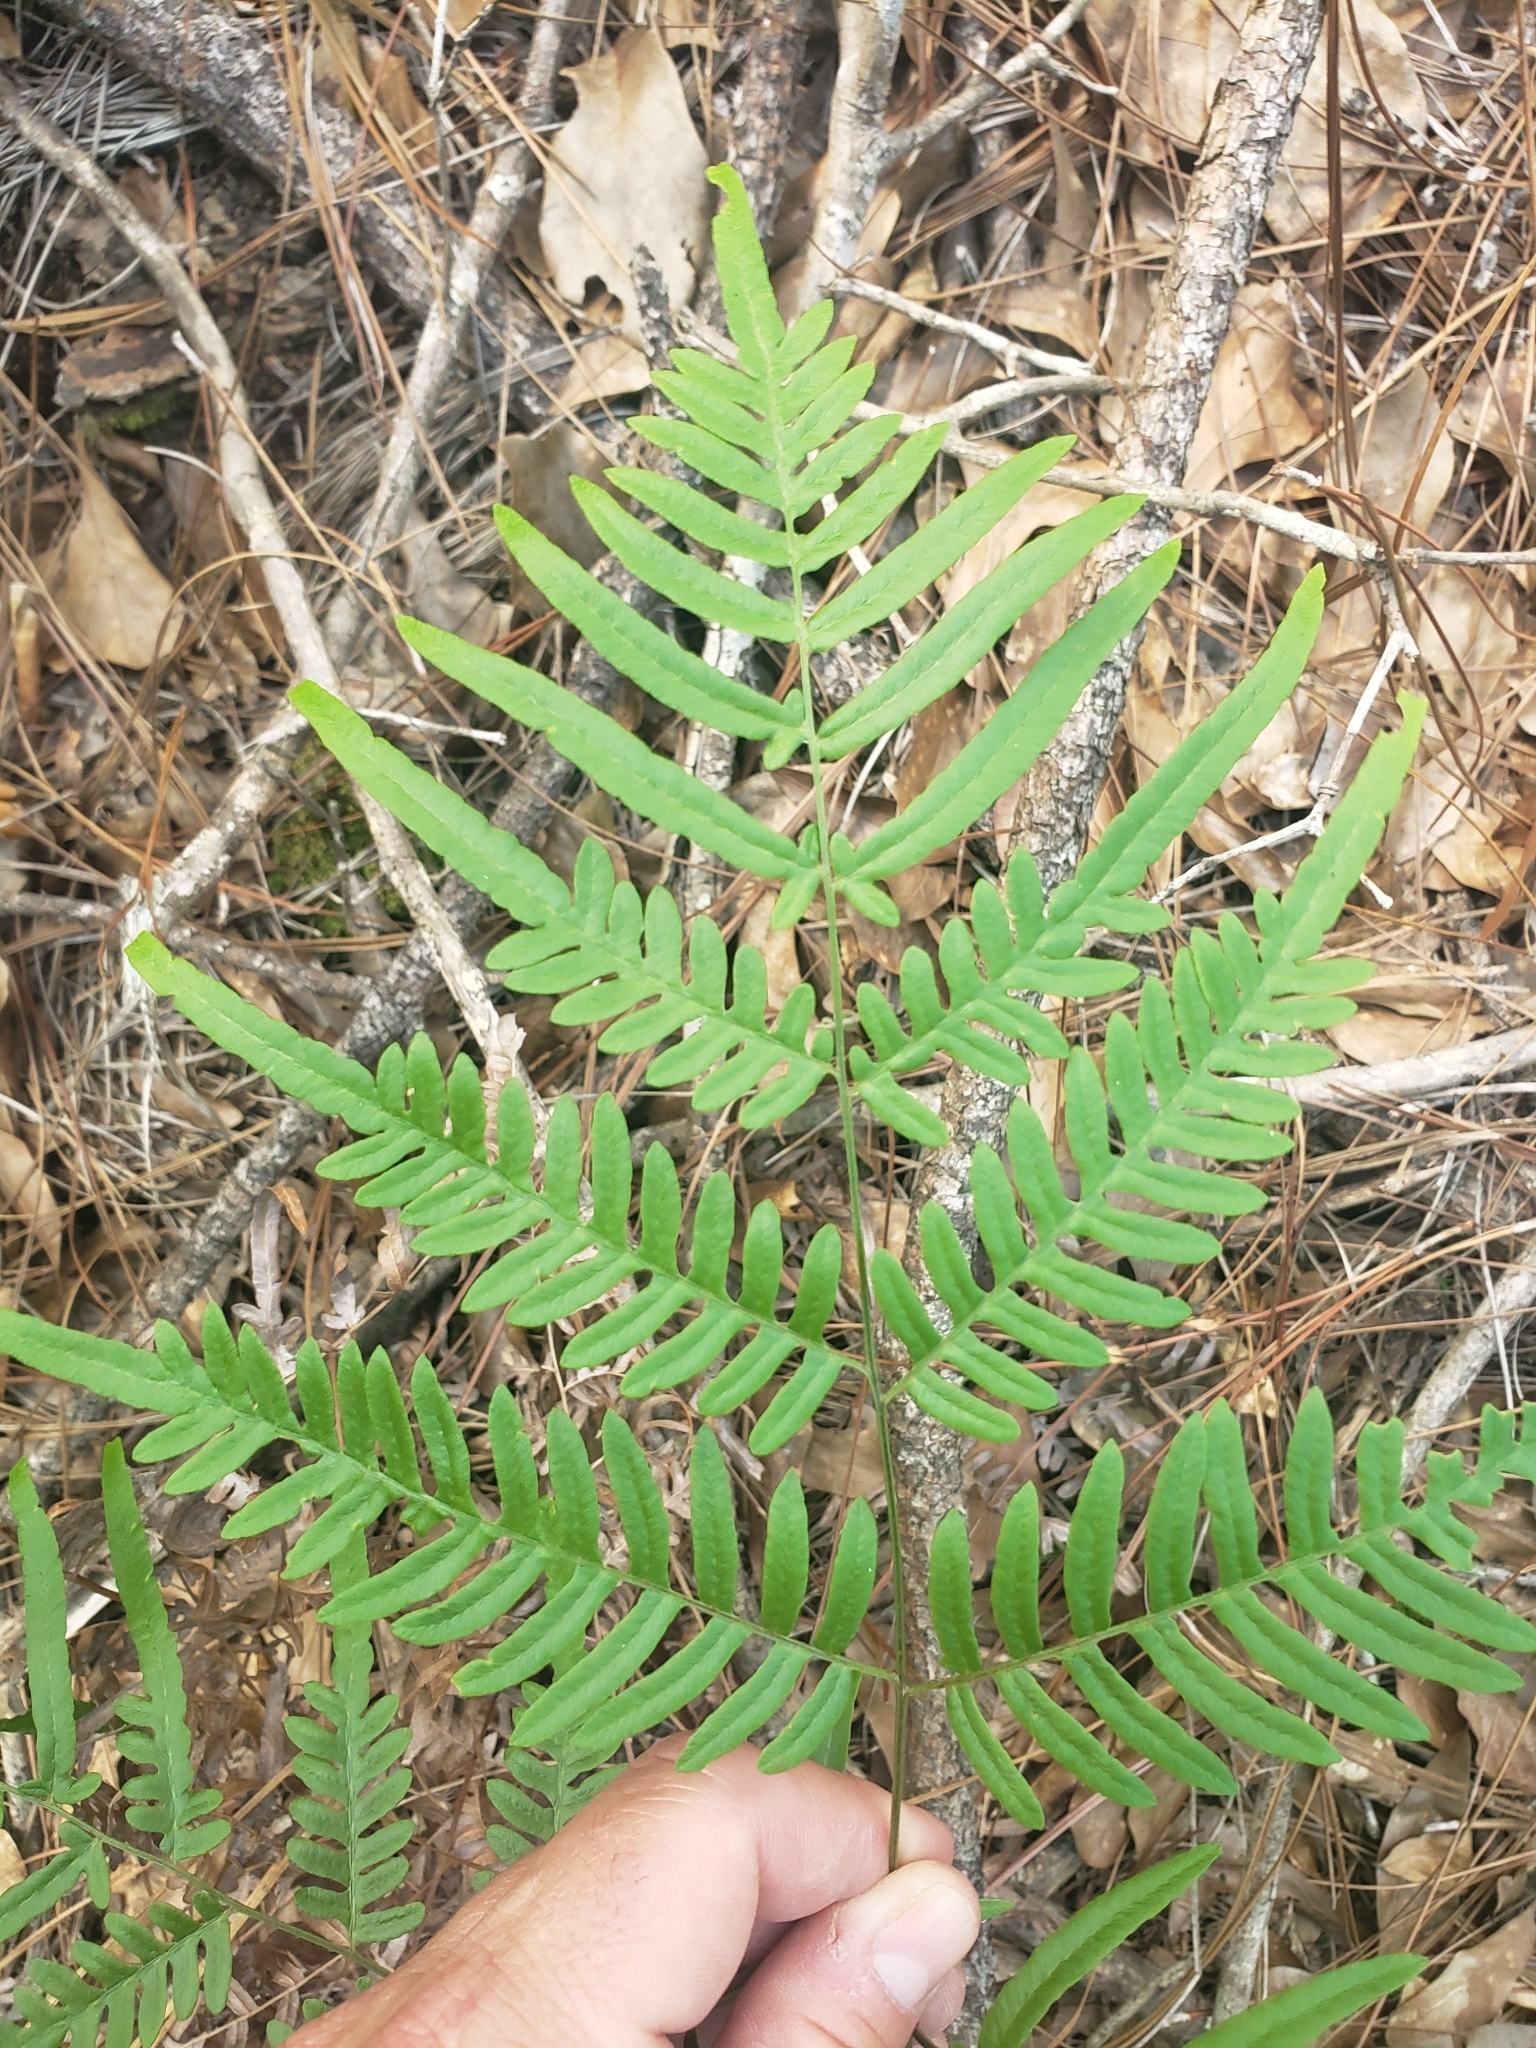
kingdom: Plantae
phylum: Tracheophyta
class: Polypodiopsida
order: Polypodiales
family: Dennstaedtiaceae
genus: Pteridium
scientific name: Pteridium aquilinum
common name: Bracken
